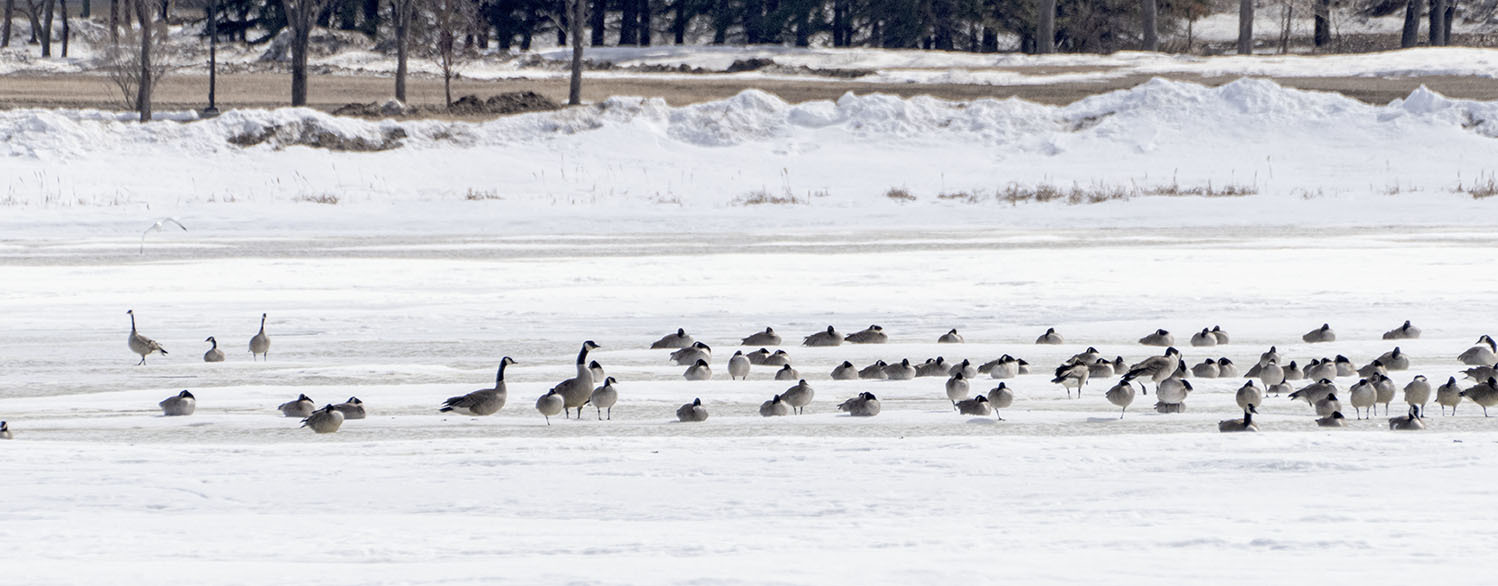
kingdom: Animalia
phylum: Chordata
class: Aves
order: Anseriformes
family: Anatidae
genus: Branta
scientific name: Branta canadensis
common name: Canada goose
